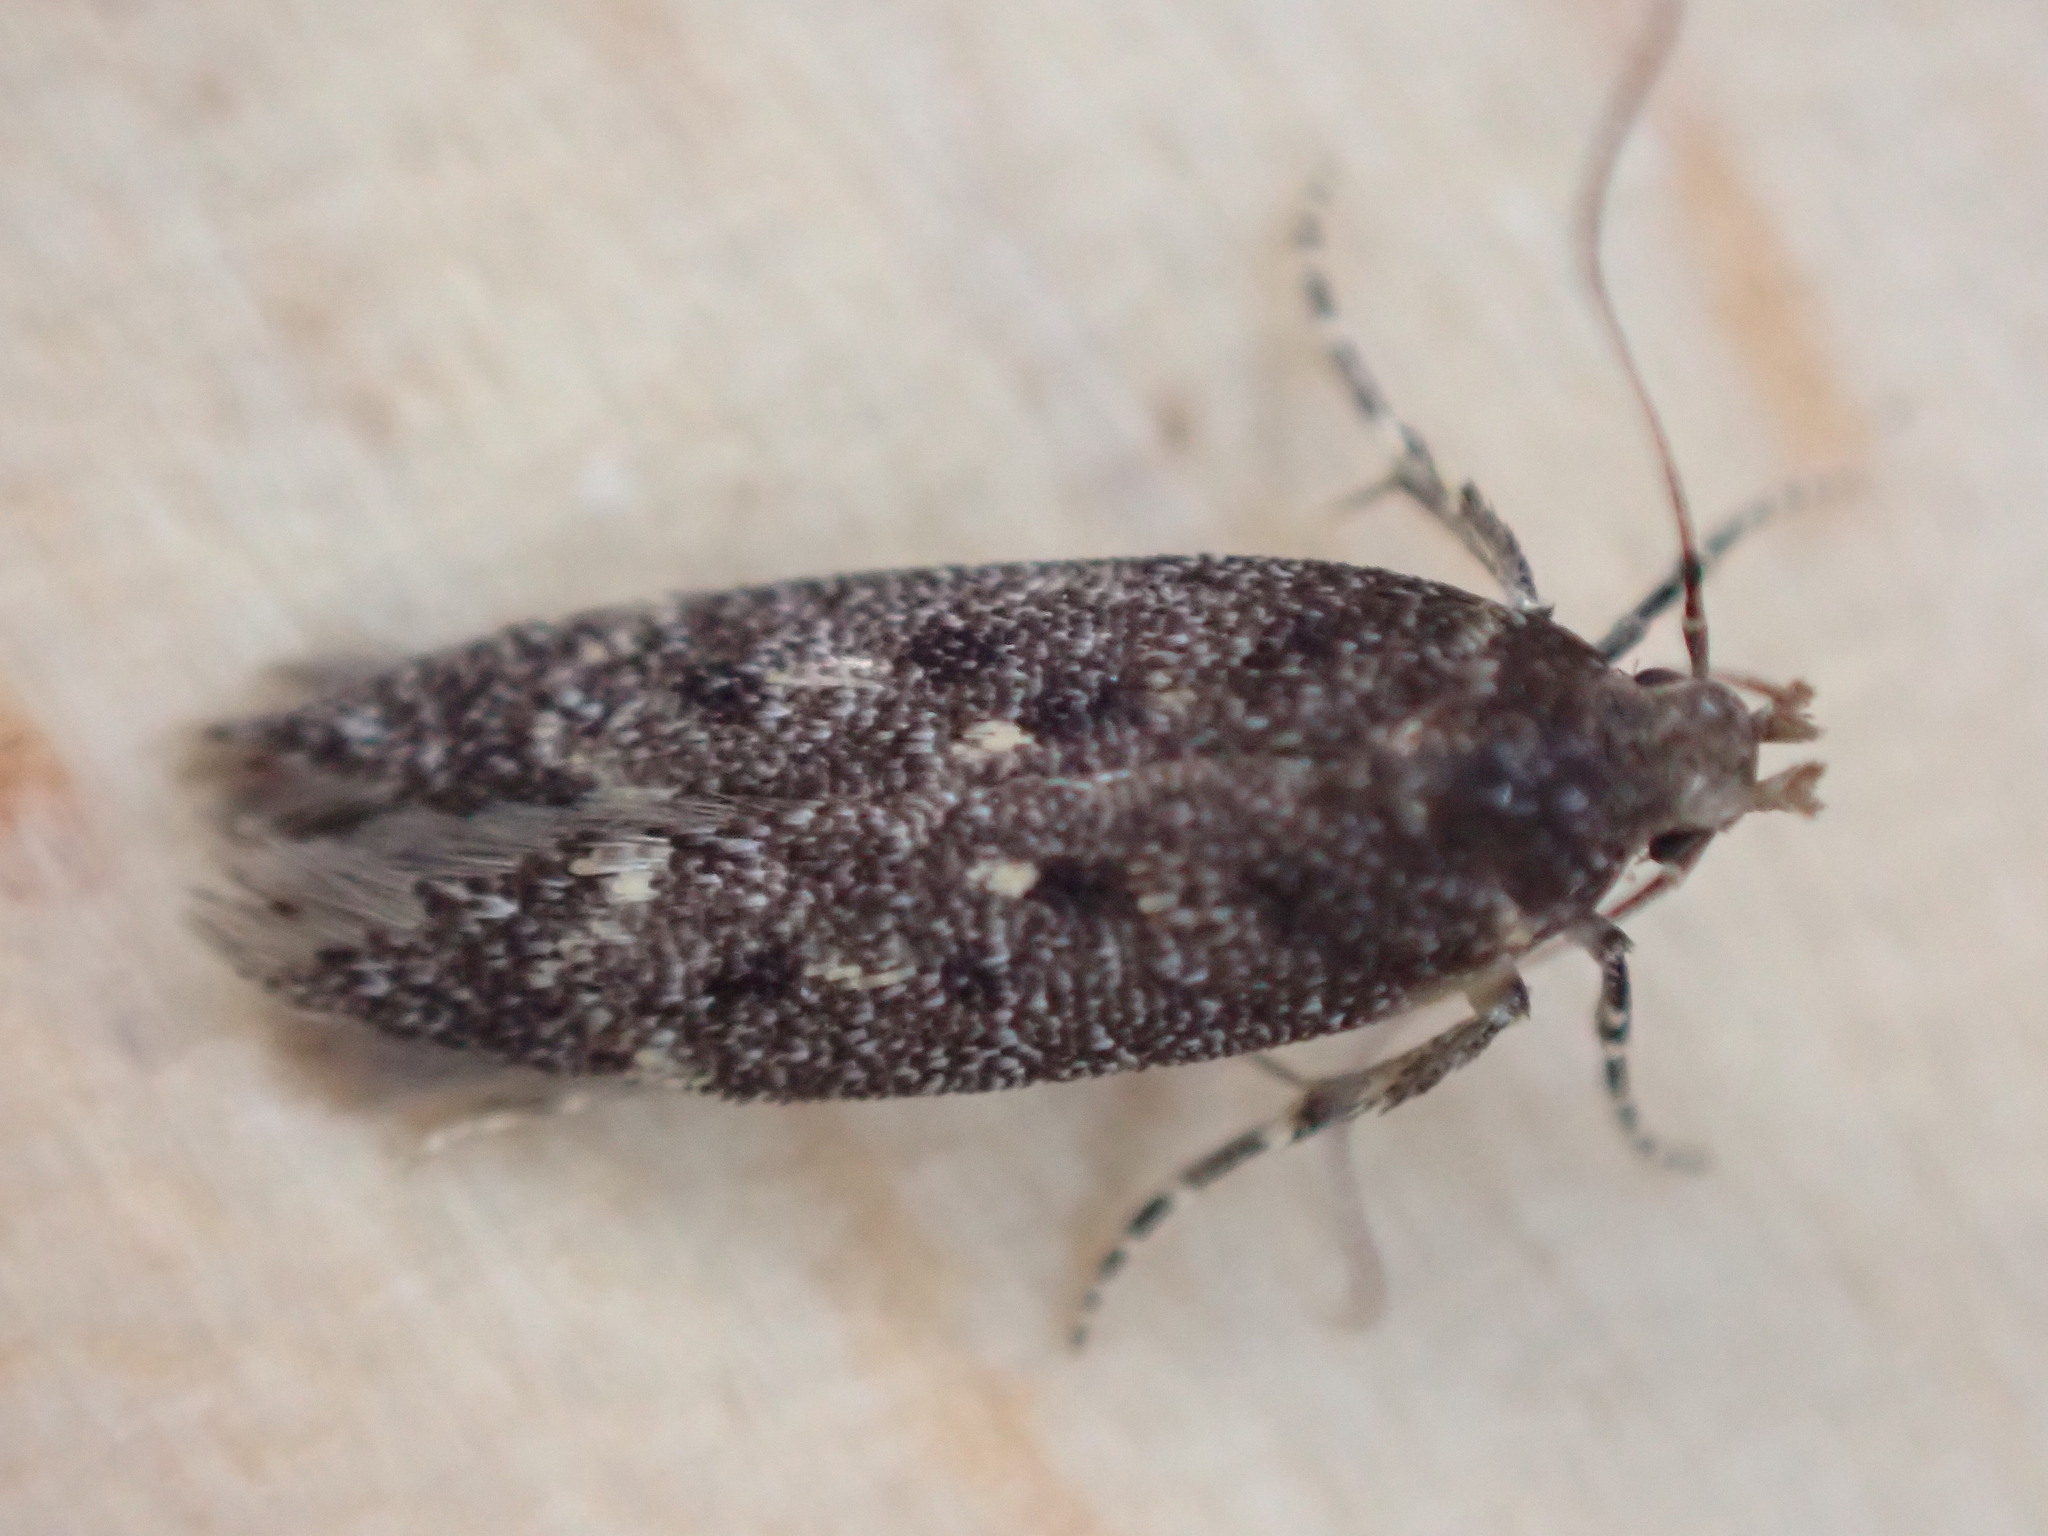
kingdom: Animalia
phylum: Arthropoda
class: Insecta
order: Lepidoptera
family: Gelechiidae
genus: Bryotropha
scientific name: Bryotropha affinis
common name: Dark groundling
